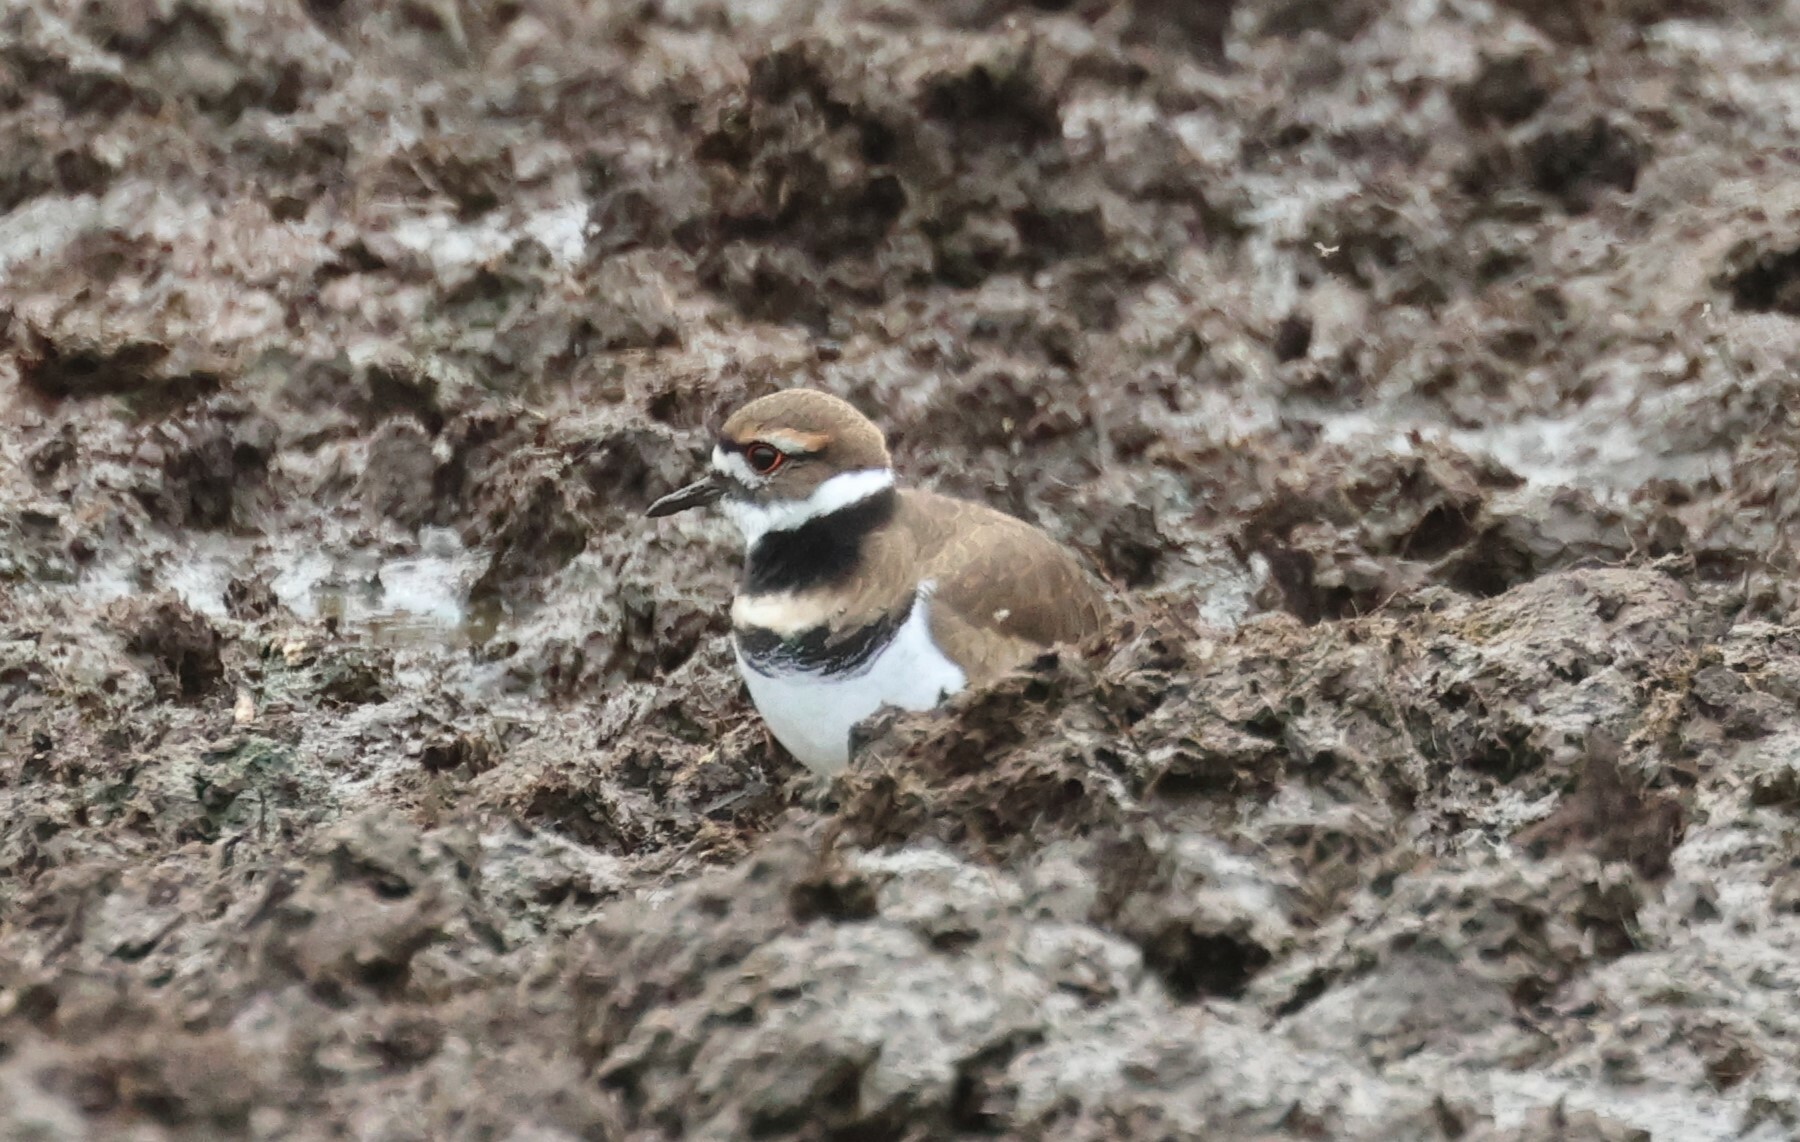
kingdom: Animalia
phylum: Chordata
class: Aves
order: Charadriiformes
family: Charadriidae
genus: Charadrius
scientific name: Charadrius vociferus
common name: Killdeer
